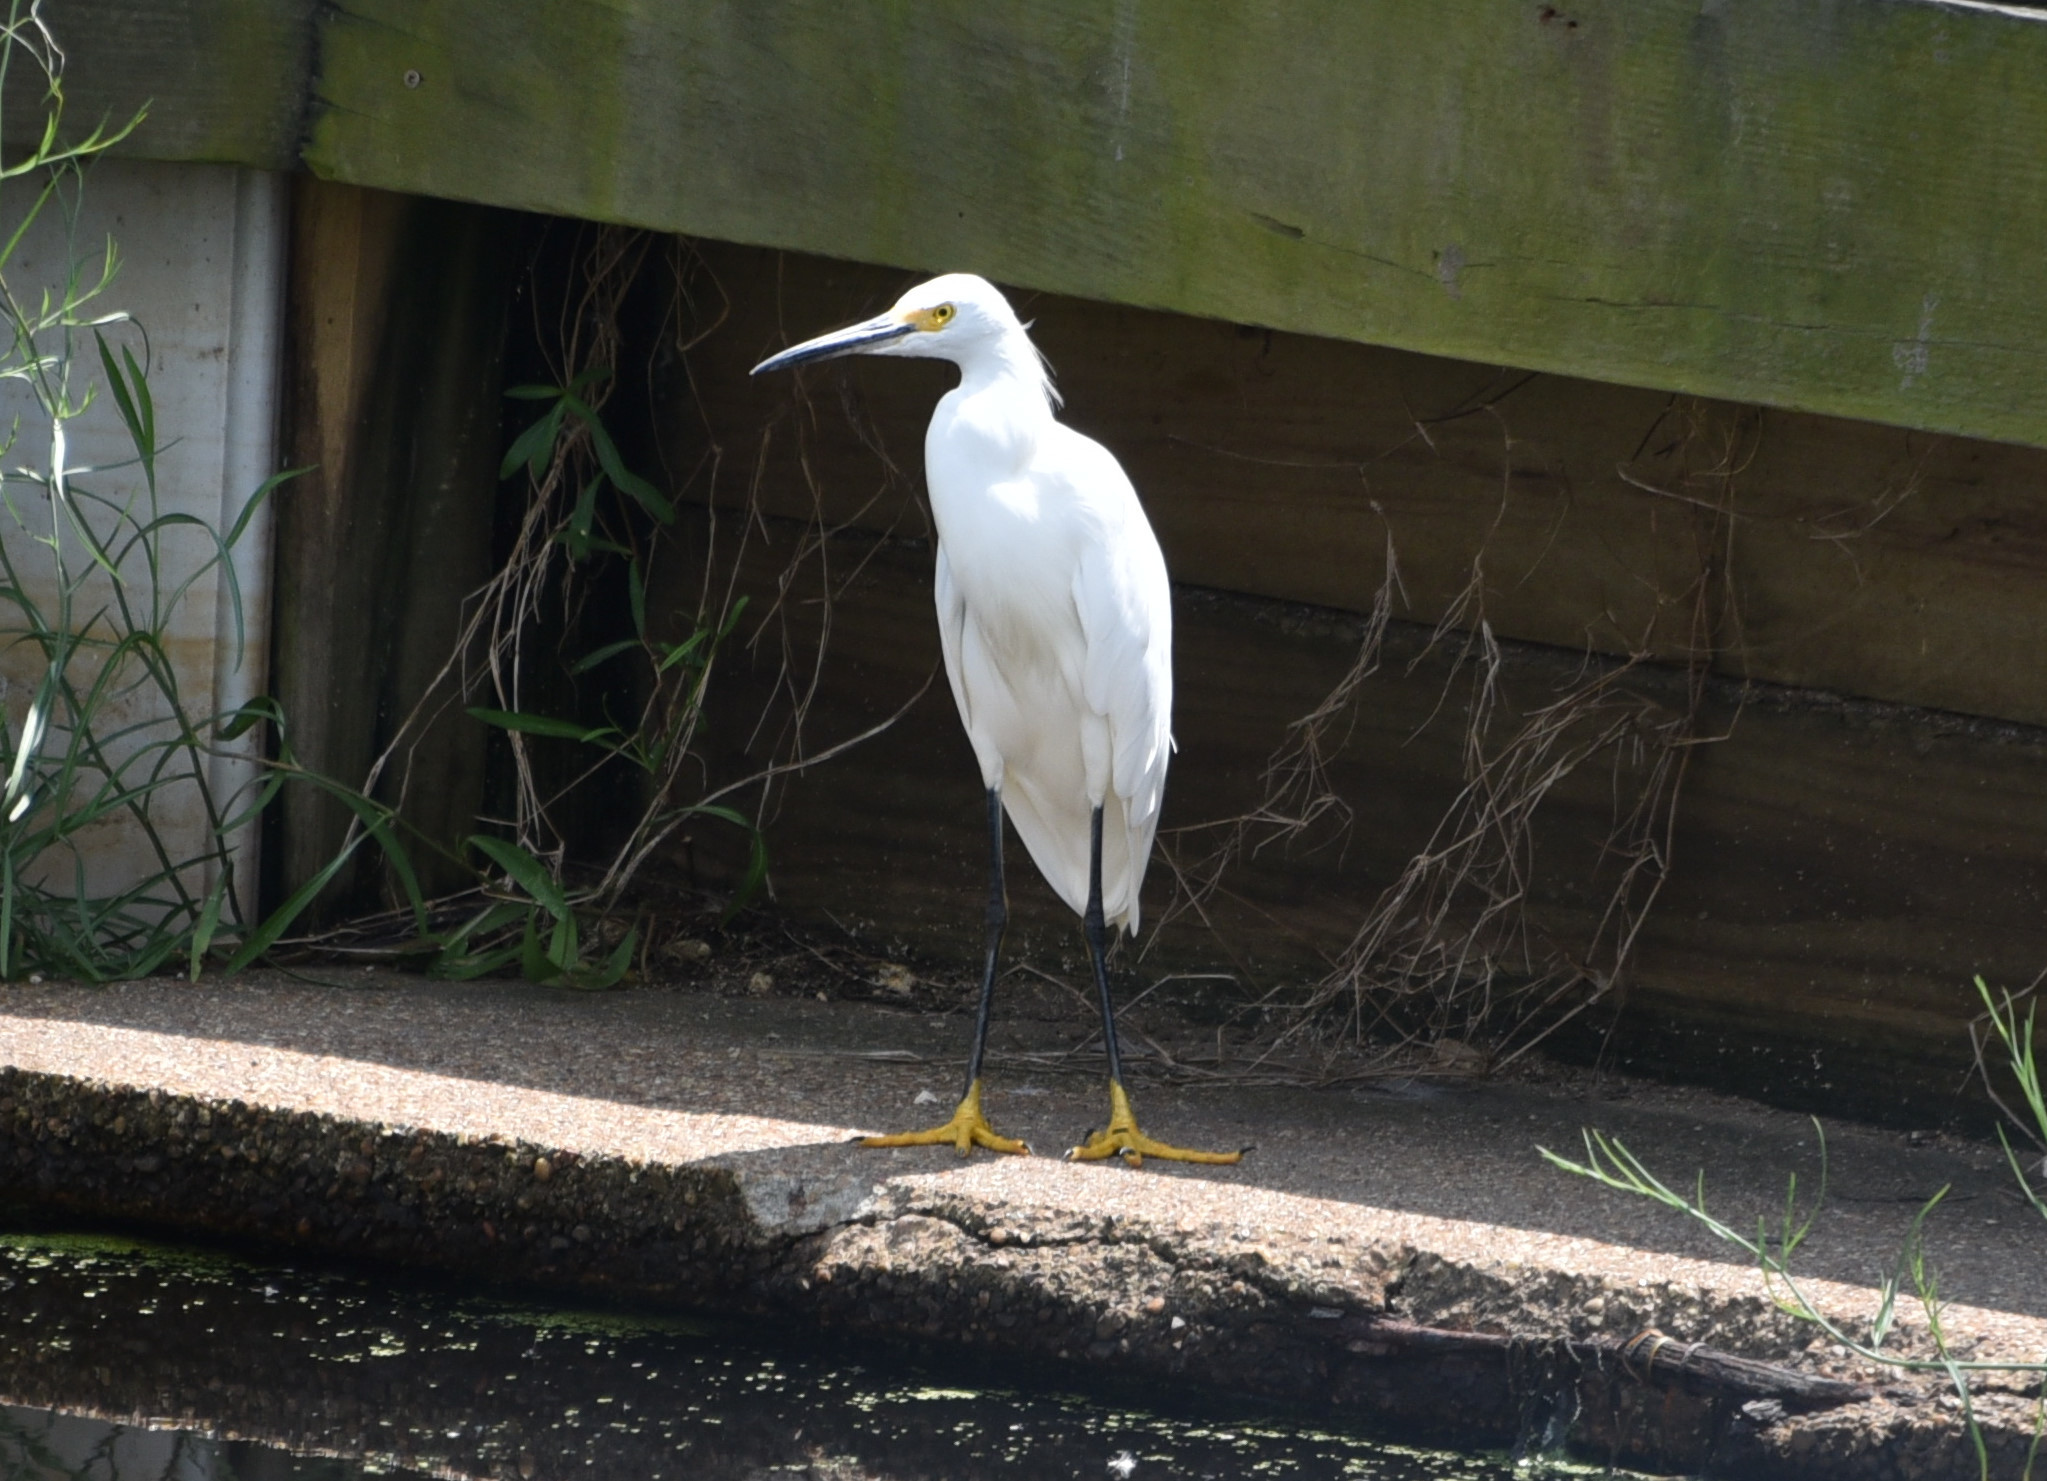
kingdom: Animalia
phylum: Chordata
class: Aves
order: Pelecaniformes
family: Ardeidae
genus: Egretta
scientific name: Egretta thula
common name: Snowy egret
